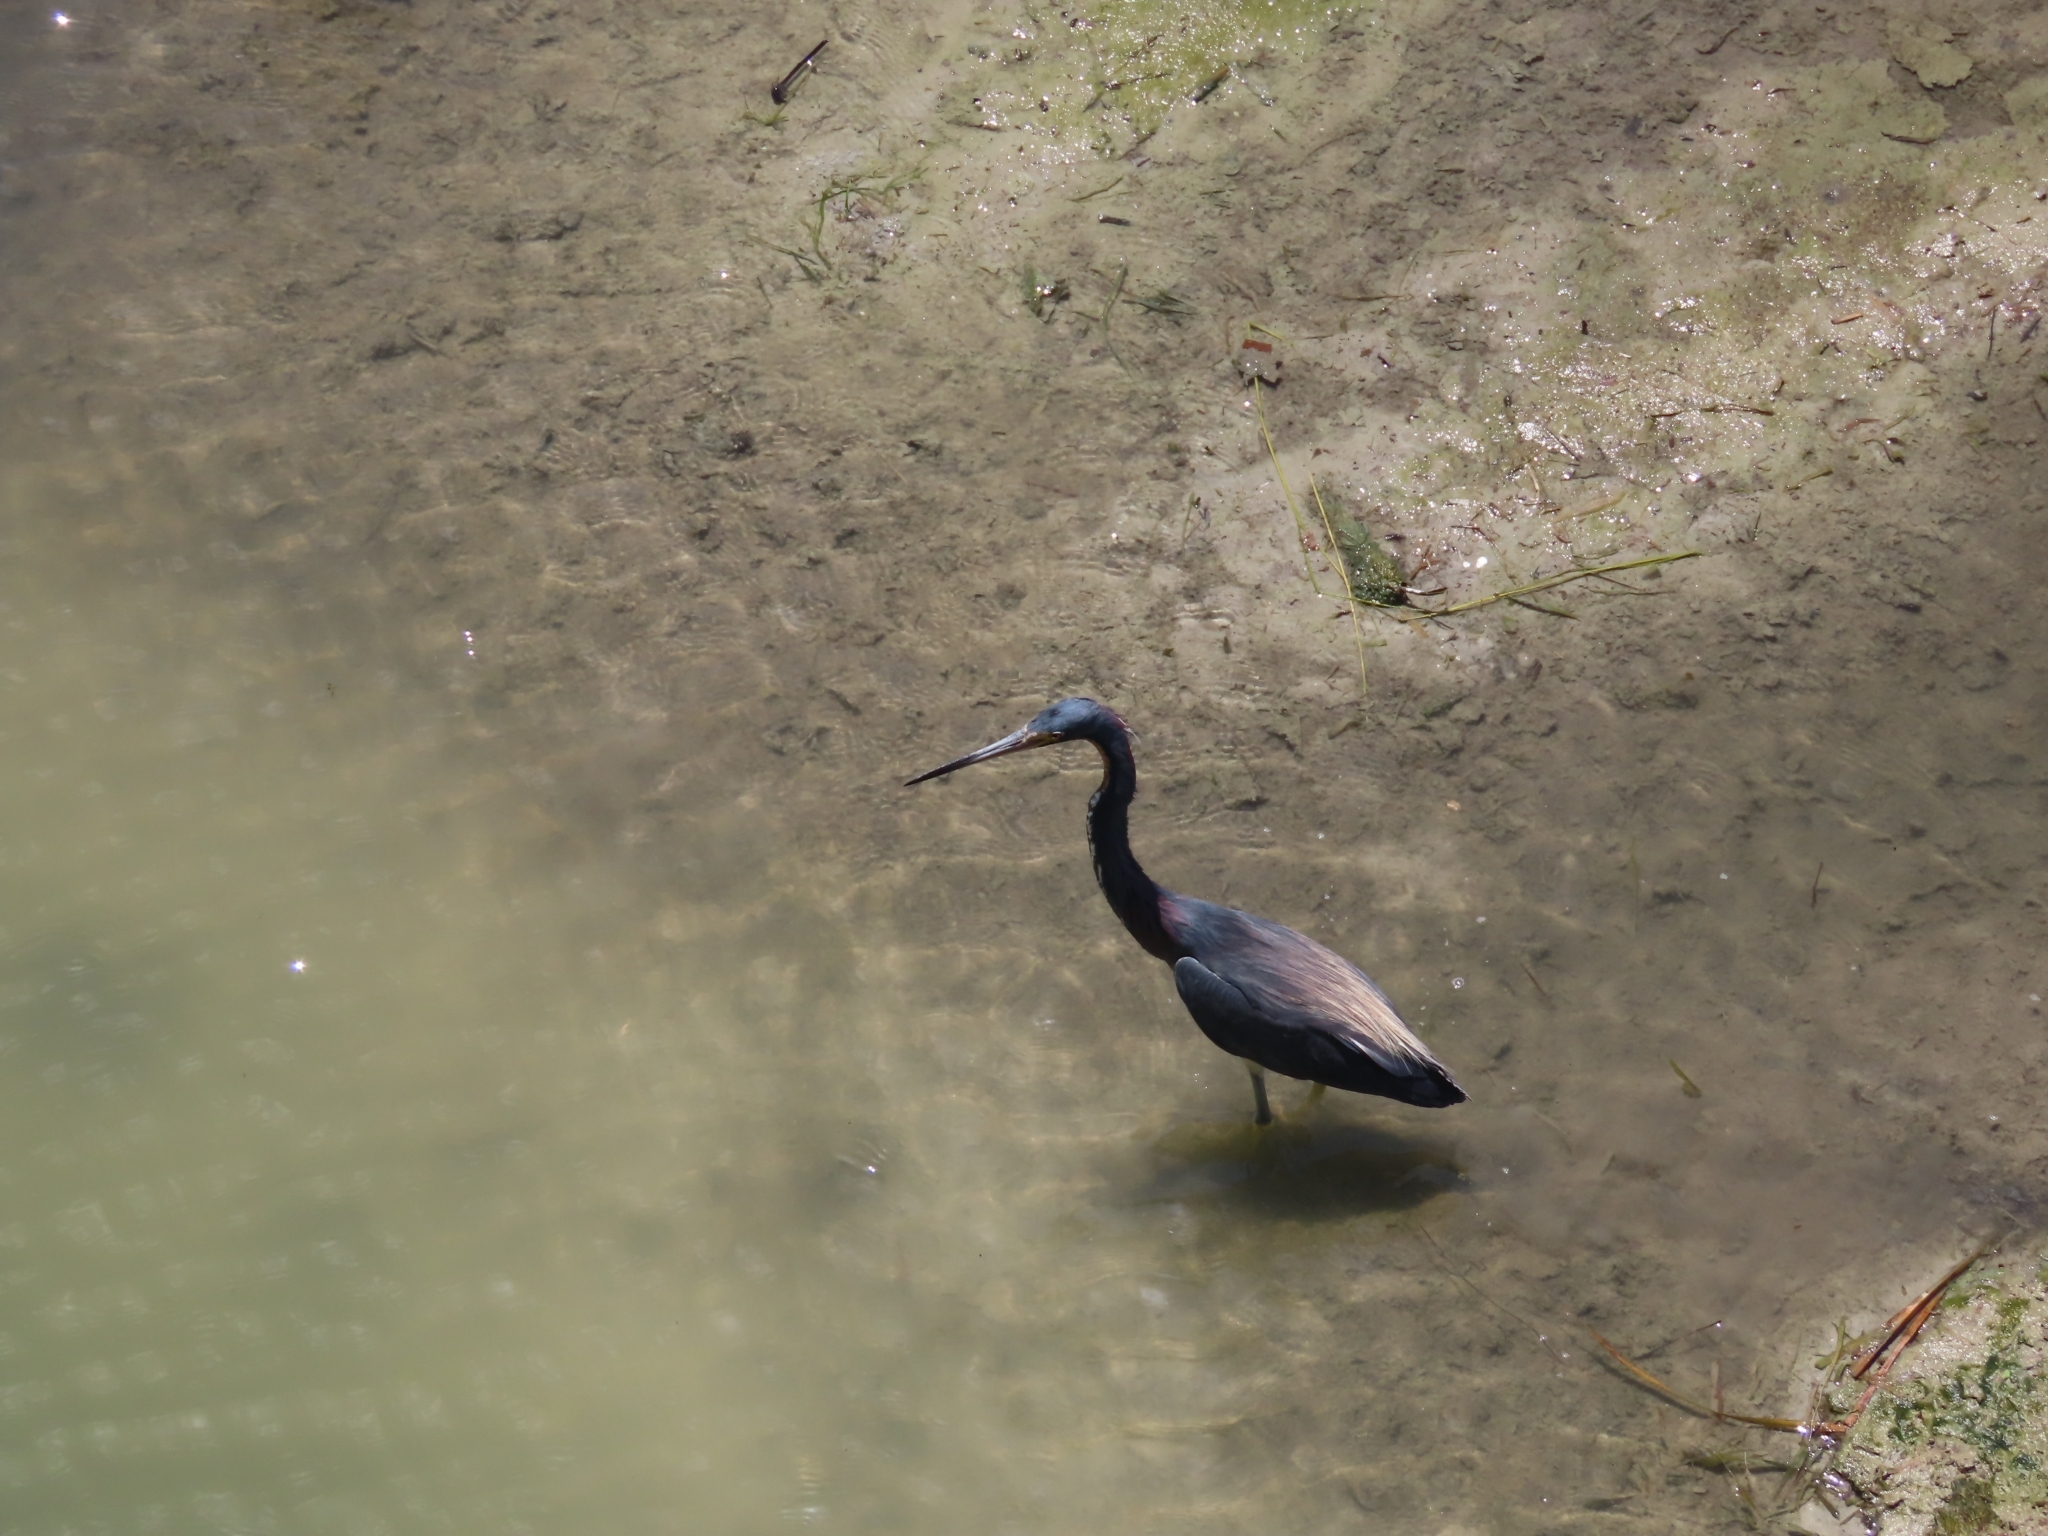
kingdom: Animalia
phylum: Chordata
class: Aves
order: Pelecaniformes
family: Ardeidae
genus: Egretta
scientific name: Egretta tricolor
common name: Tricolored heron
